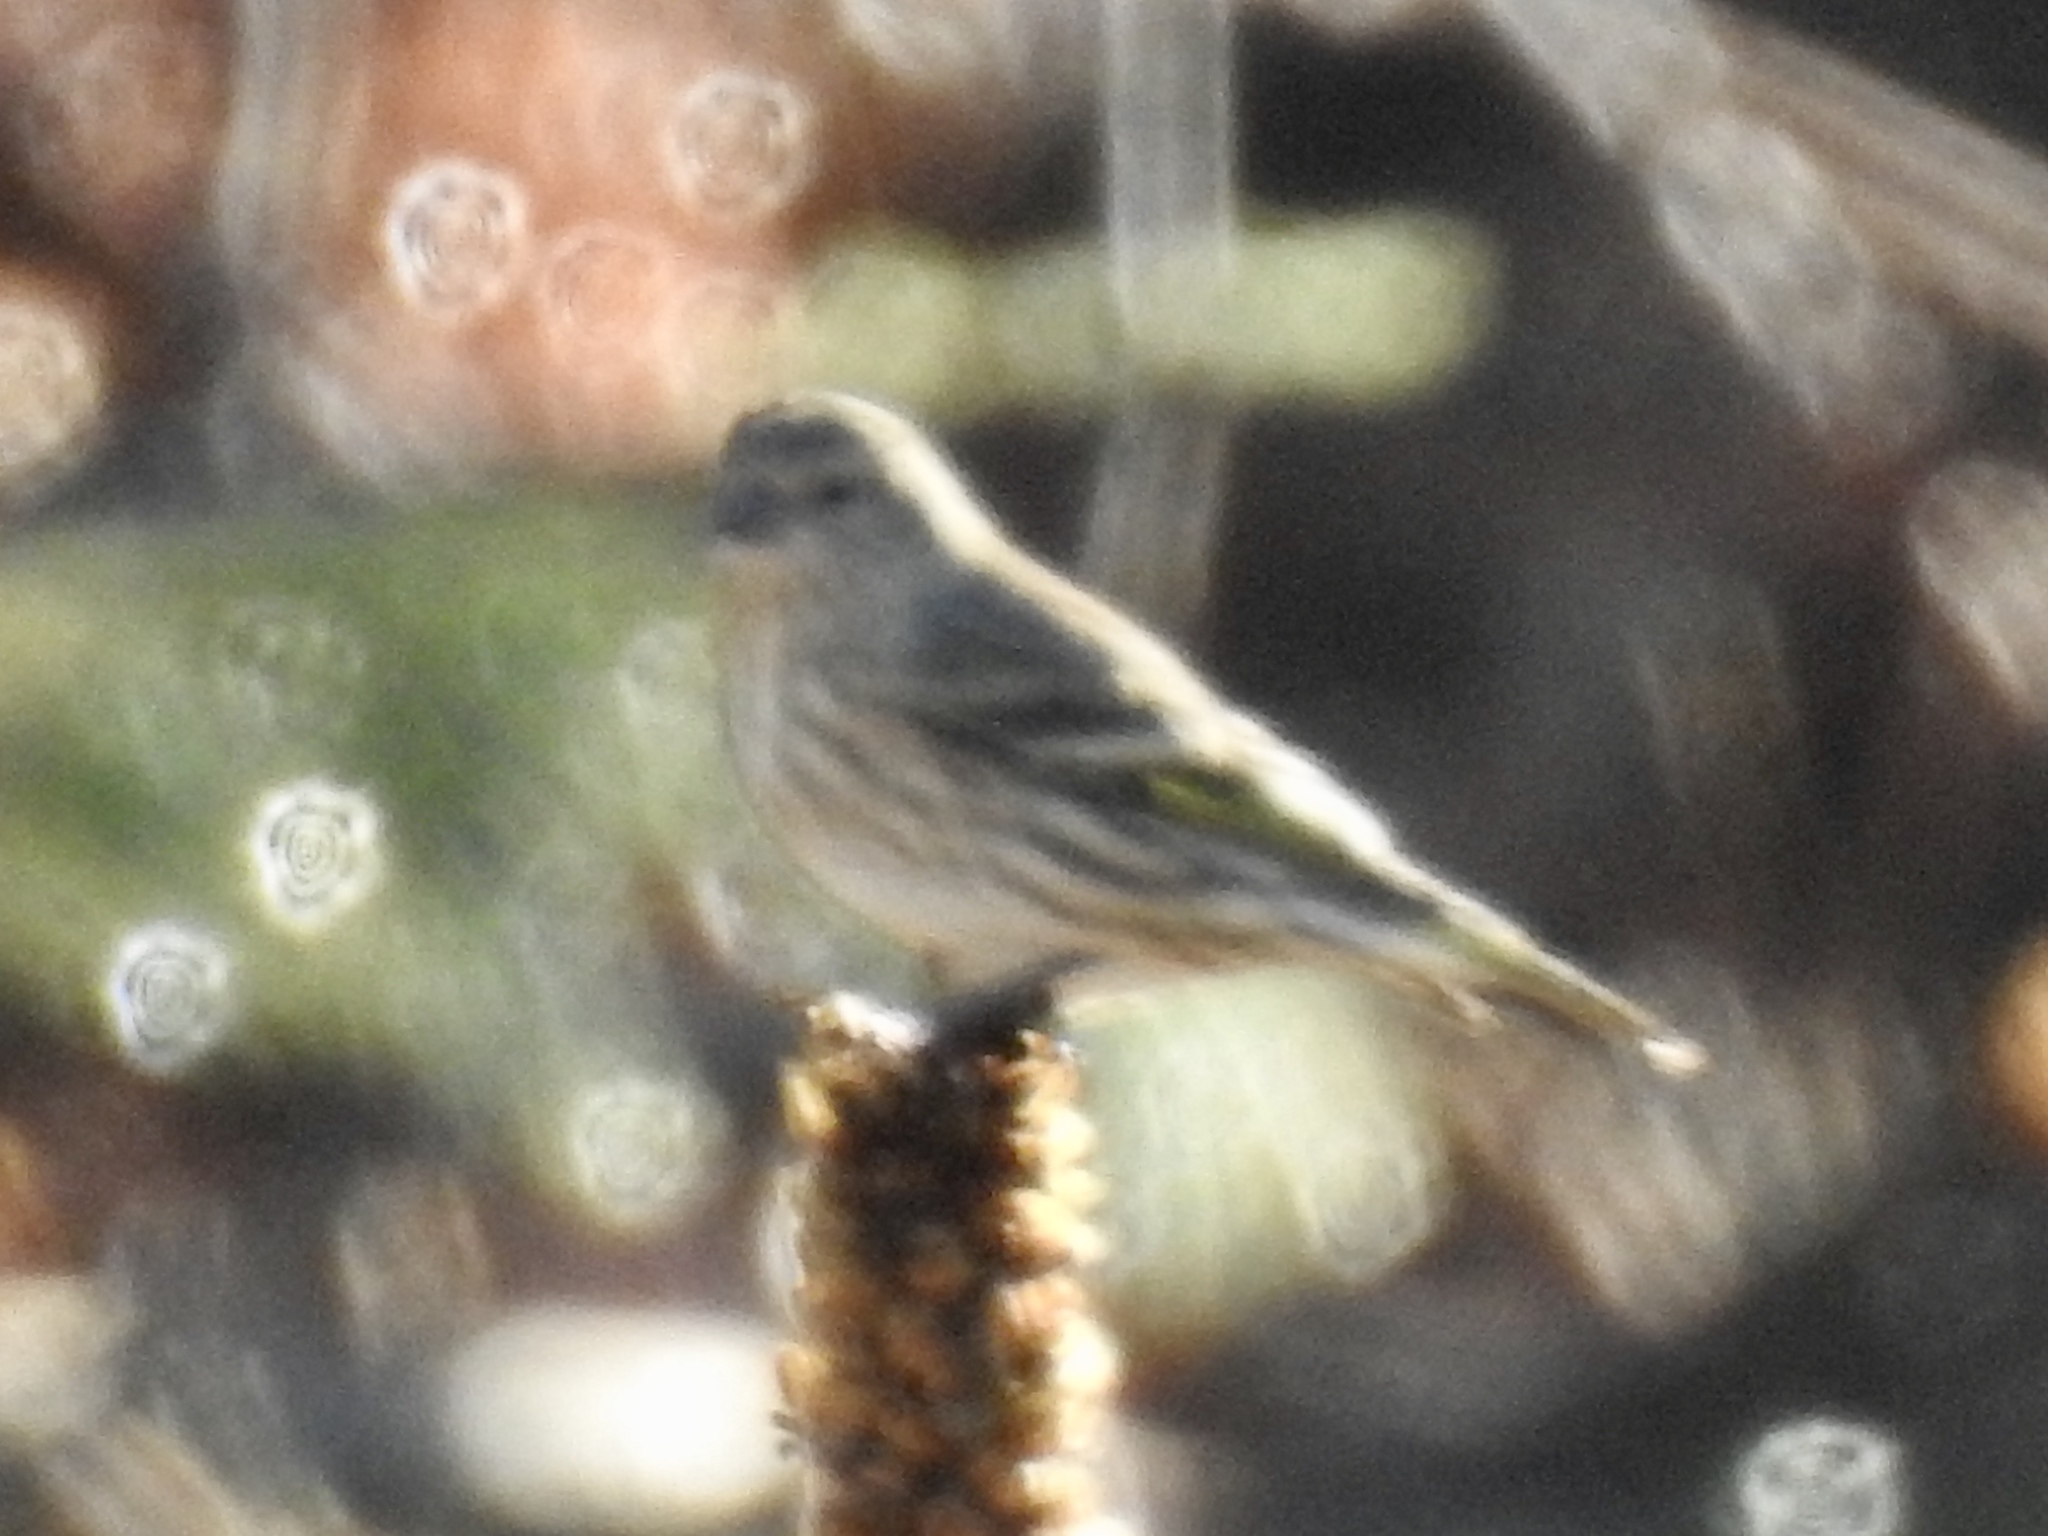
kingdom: Animalia
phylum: Chordata
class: Aves
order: Passeriformes
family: Fringillidae
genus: Spinus
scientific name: Spinus pinus
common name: Pine siskin
